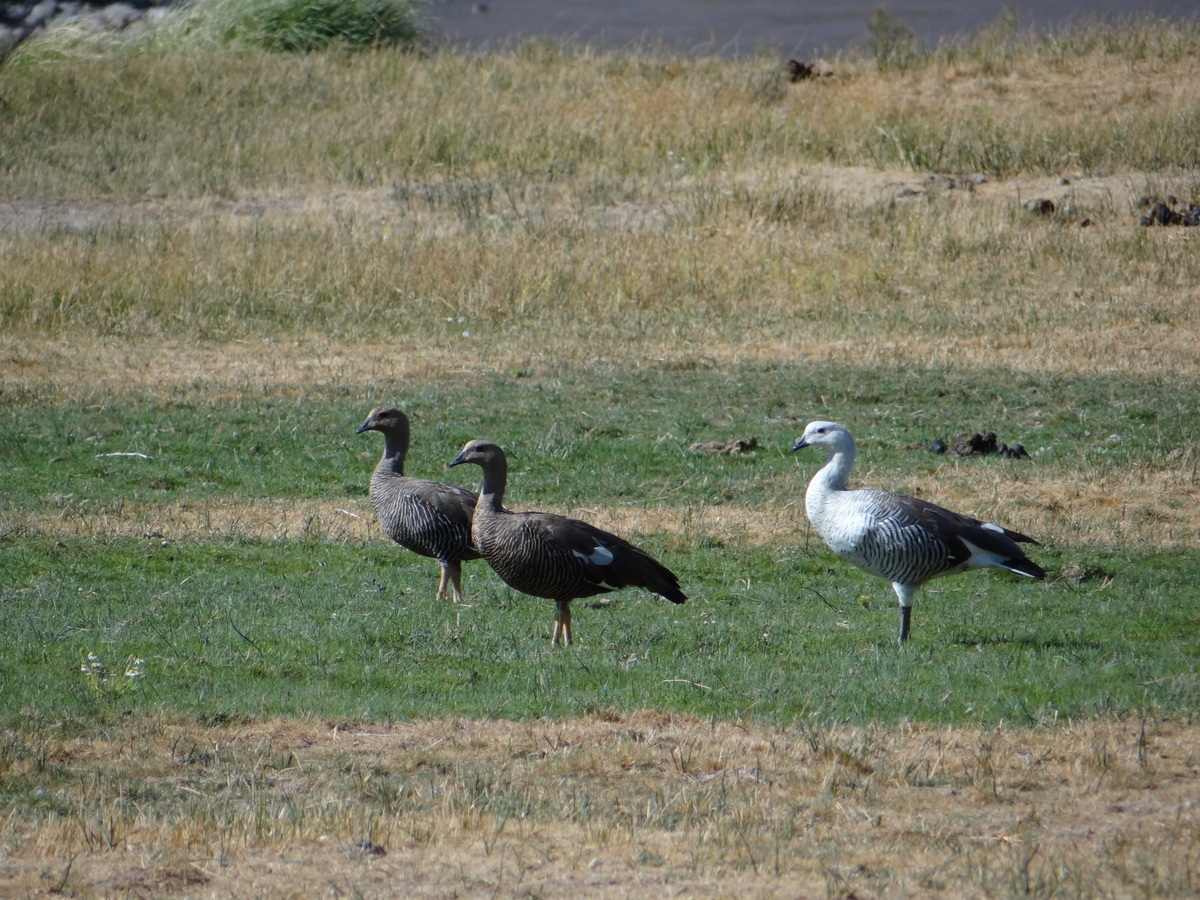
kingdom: Animalia
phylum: Chordata
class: Aves
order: Anseriformes
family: Anatidae
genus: Chloephaga
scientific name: Chloephaga picta
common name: Upland goose
